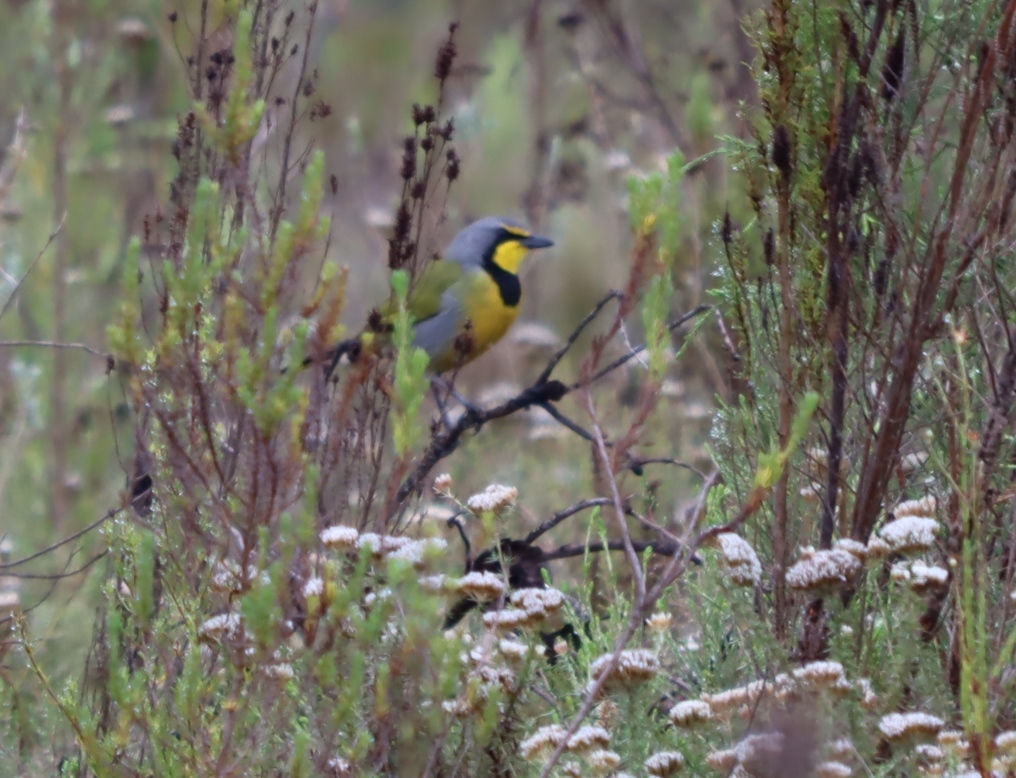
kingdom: Animalia
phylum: Chordata
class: Aves
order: Passeriformes
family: Malaconotidae
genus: Telophorus
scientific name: Telophorus zeylonus
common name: Bokmakierie
